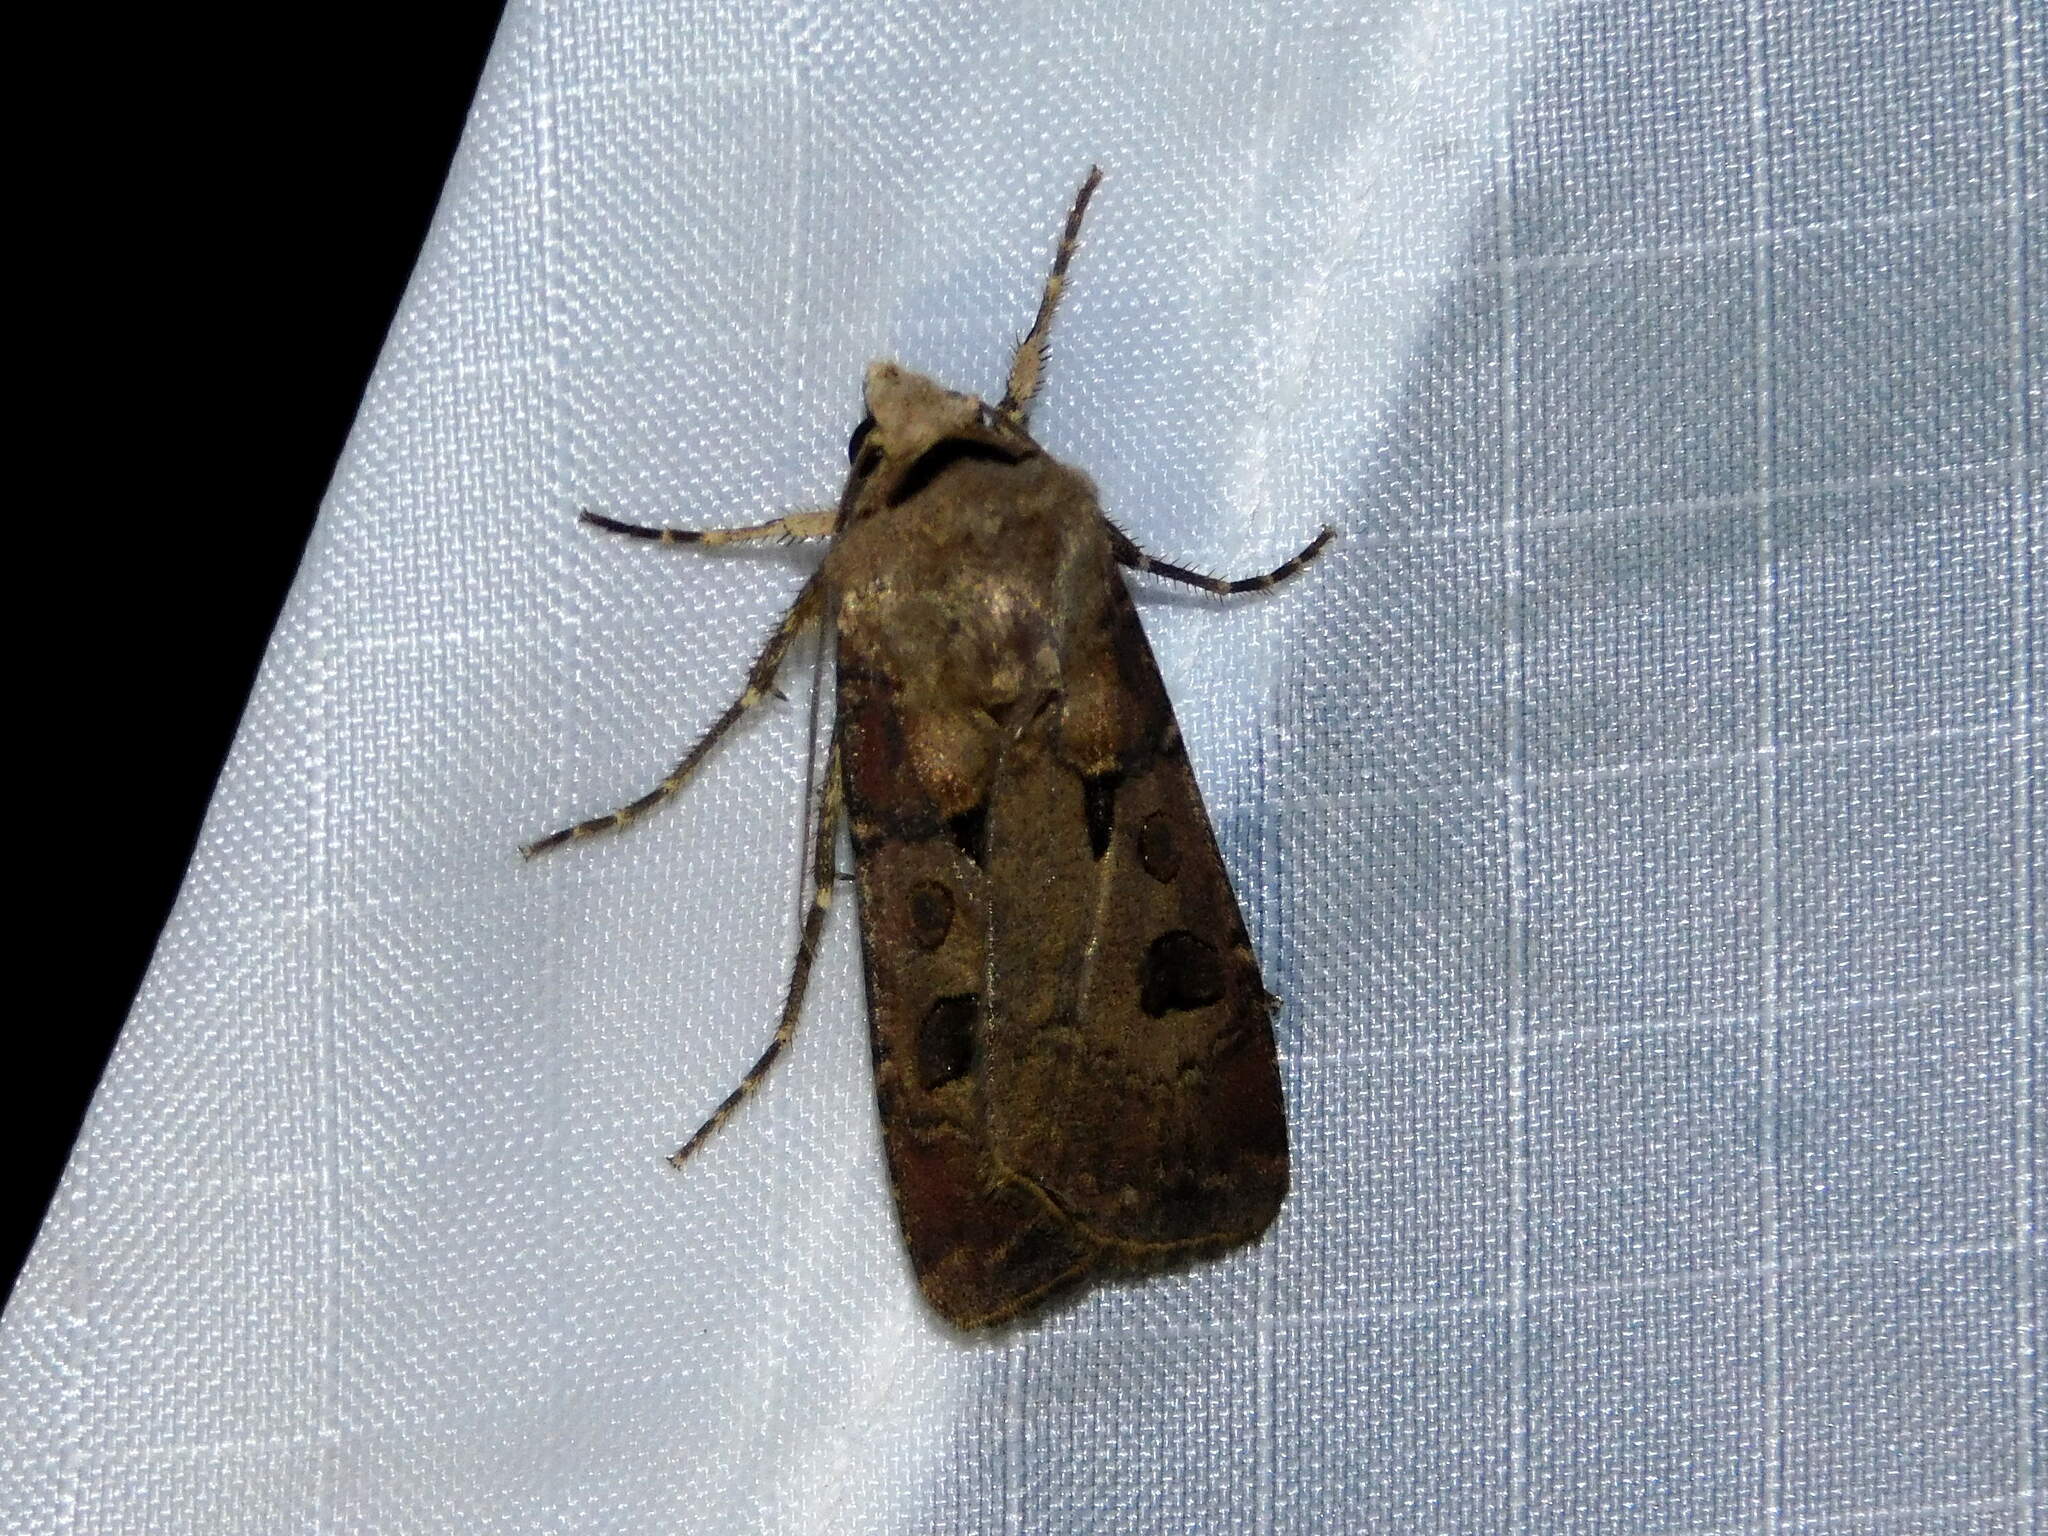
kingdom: Animalia
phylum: Arthropoda
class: Insecta
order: Lepidoptera
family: Noctuidae
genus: Agrotis
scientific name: Agrotis exclamationis
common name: Heart and dart
